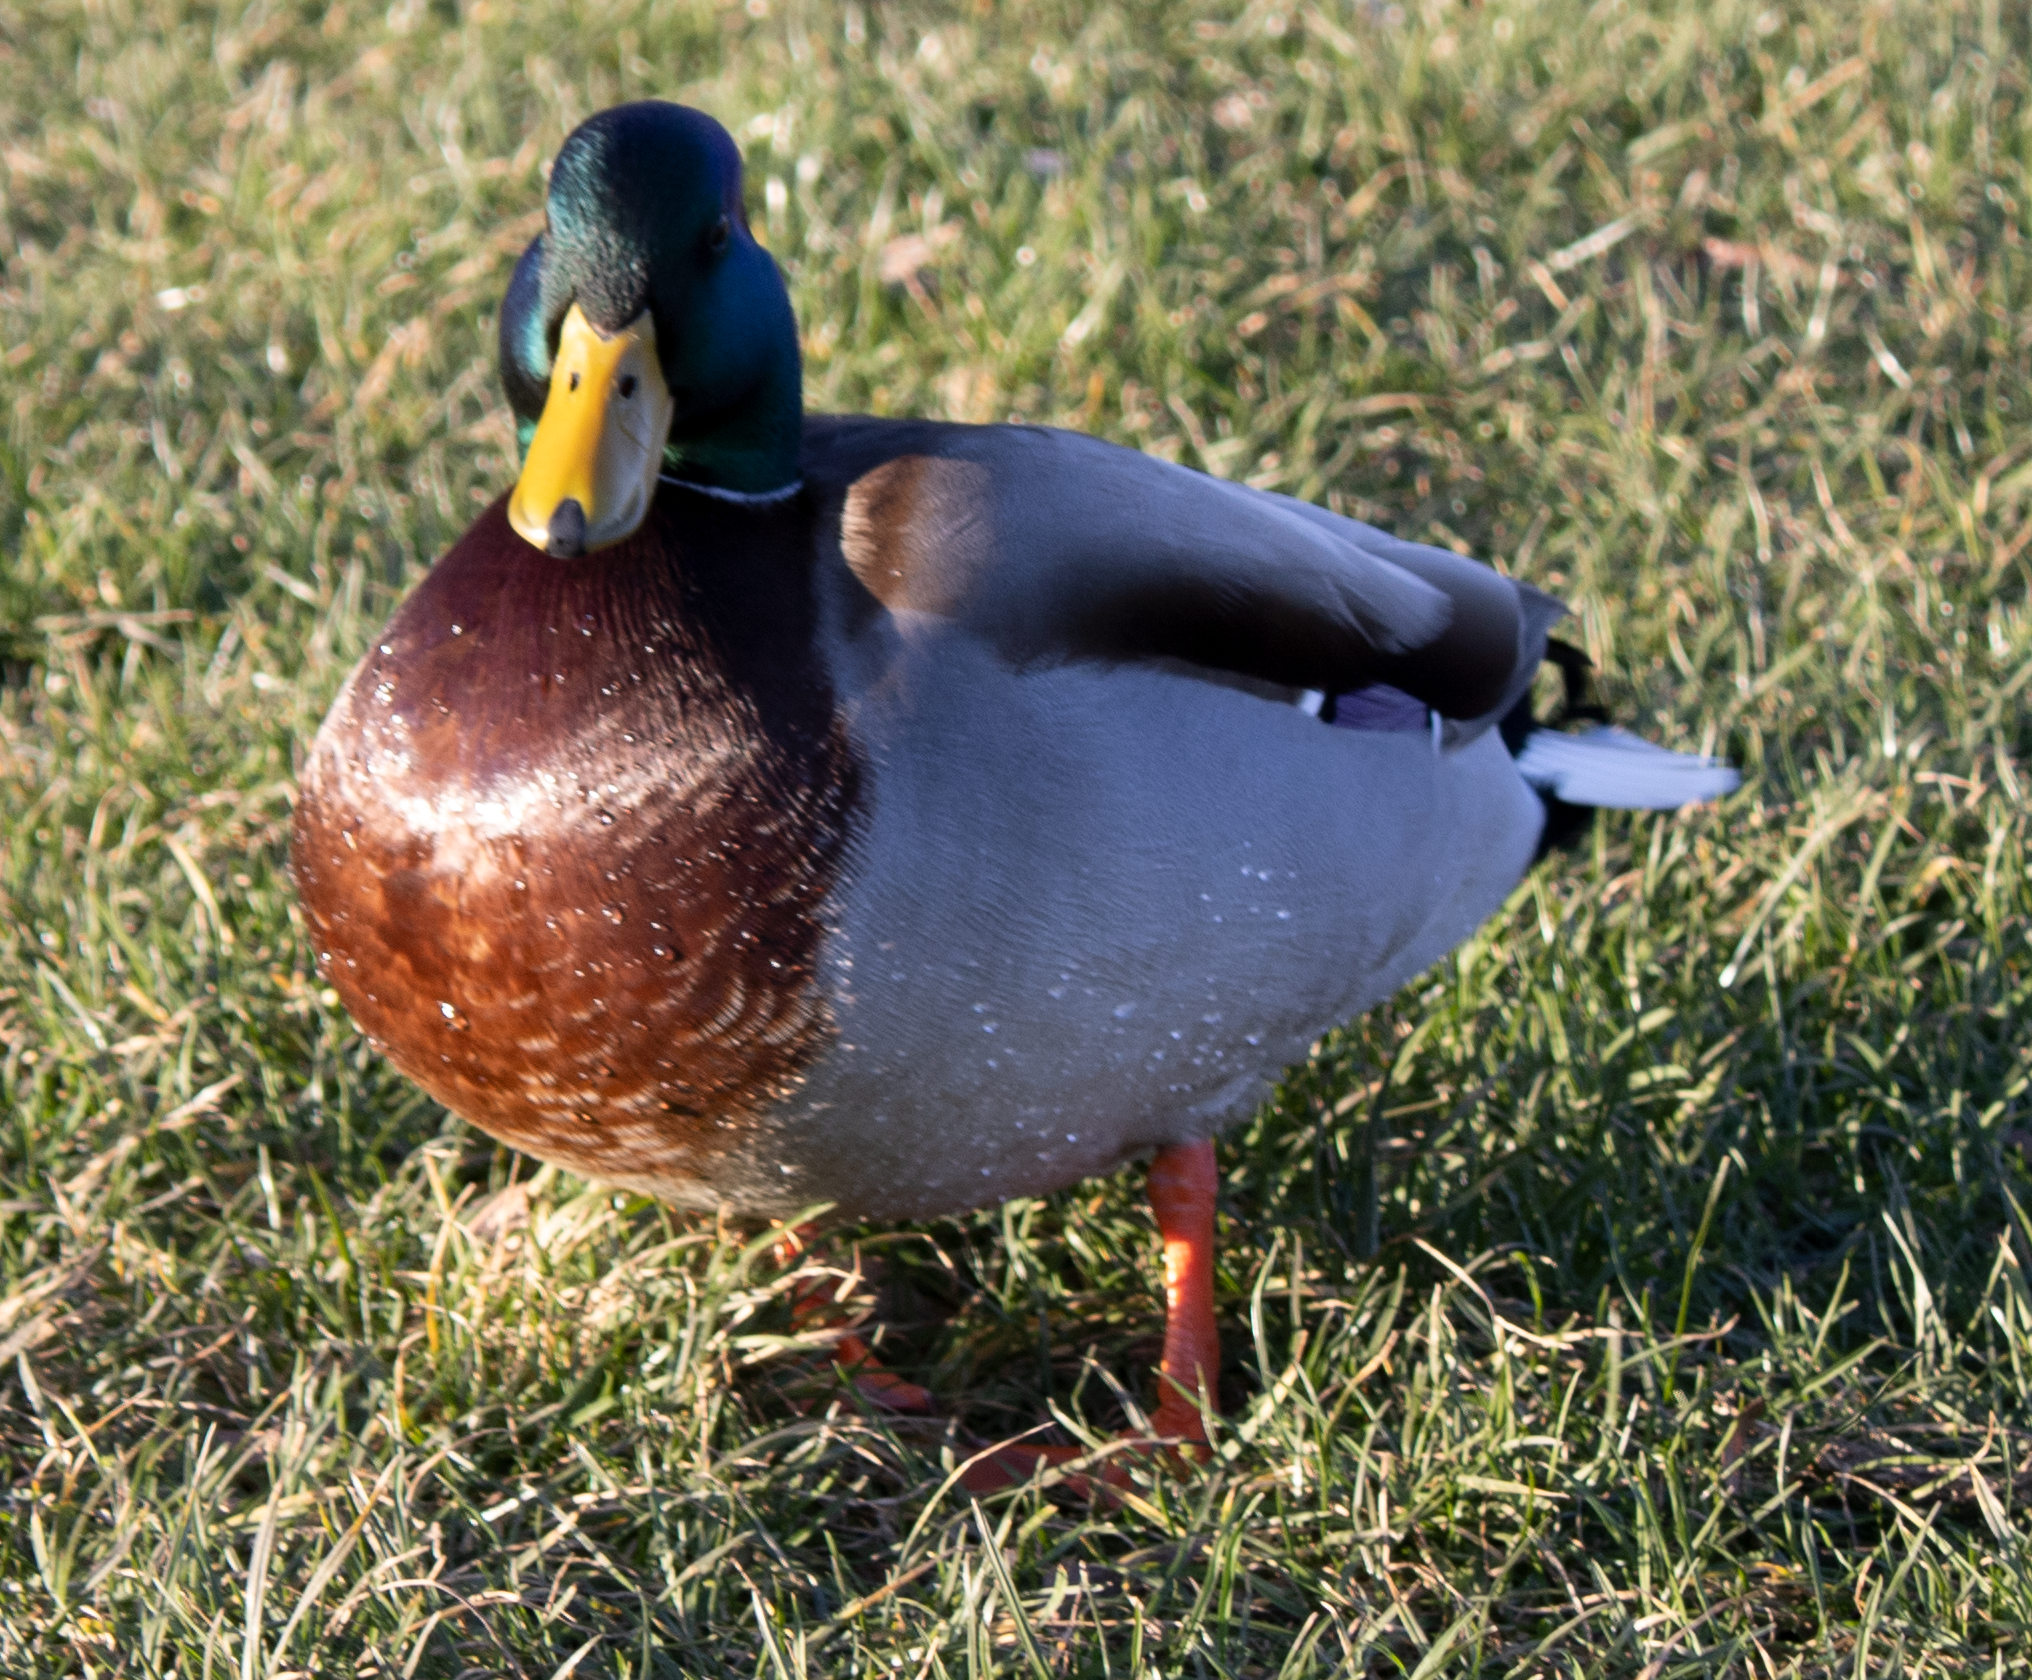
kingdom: Animalia
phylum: Chordata
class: Aves
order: Anseriformes
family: Anatidae
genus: Anas
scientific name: Anas platyrhynchos
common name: Mallard
